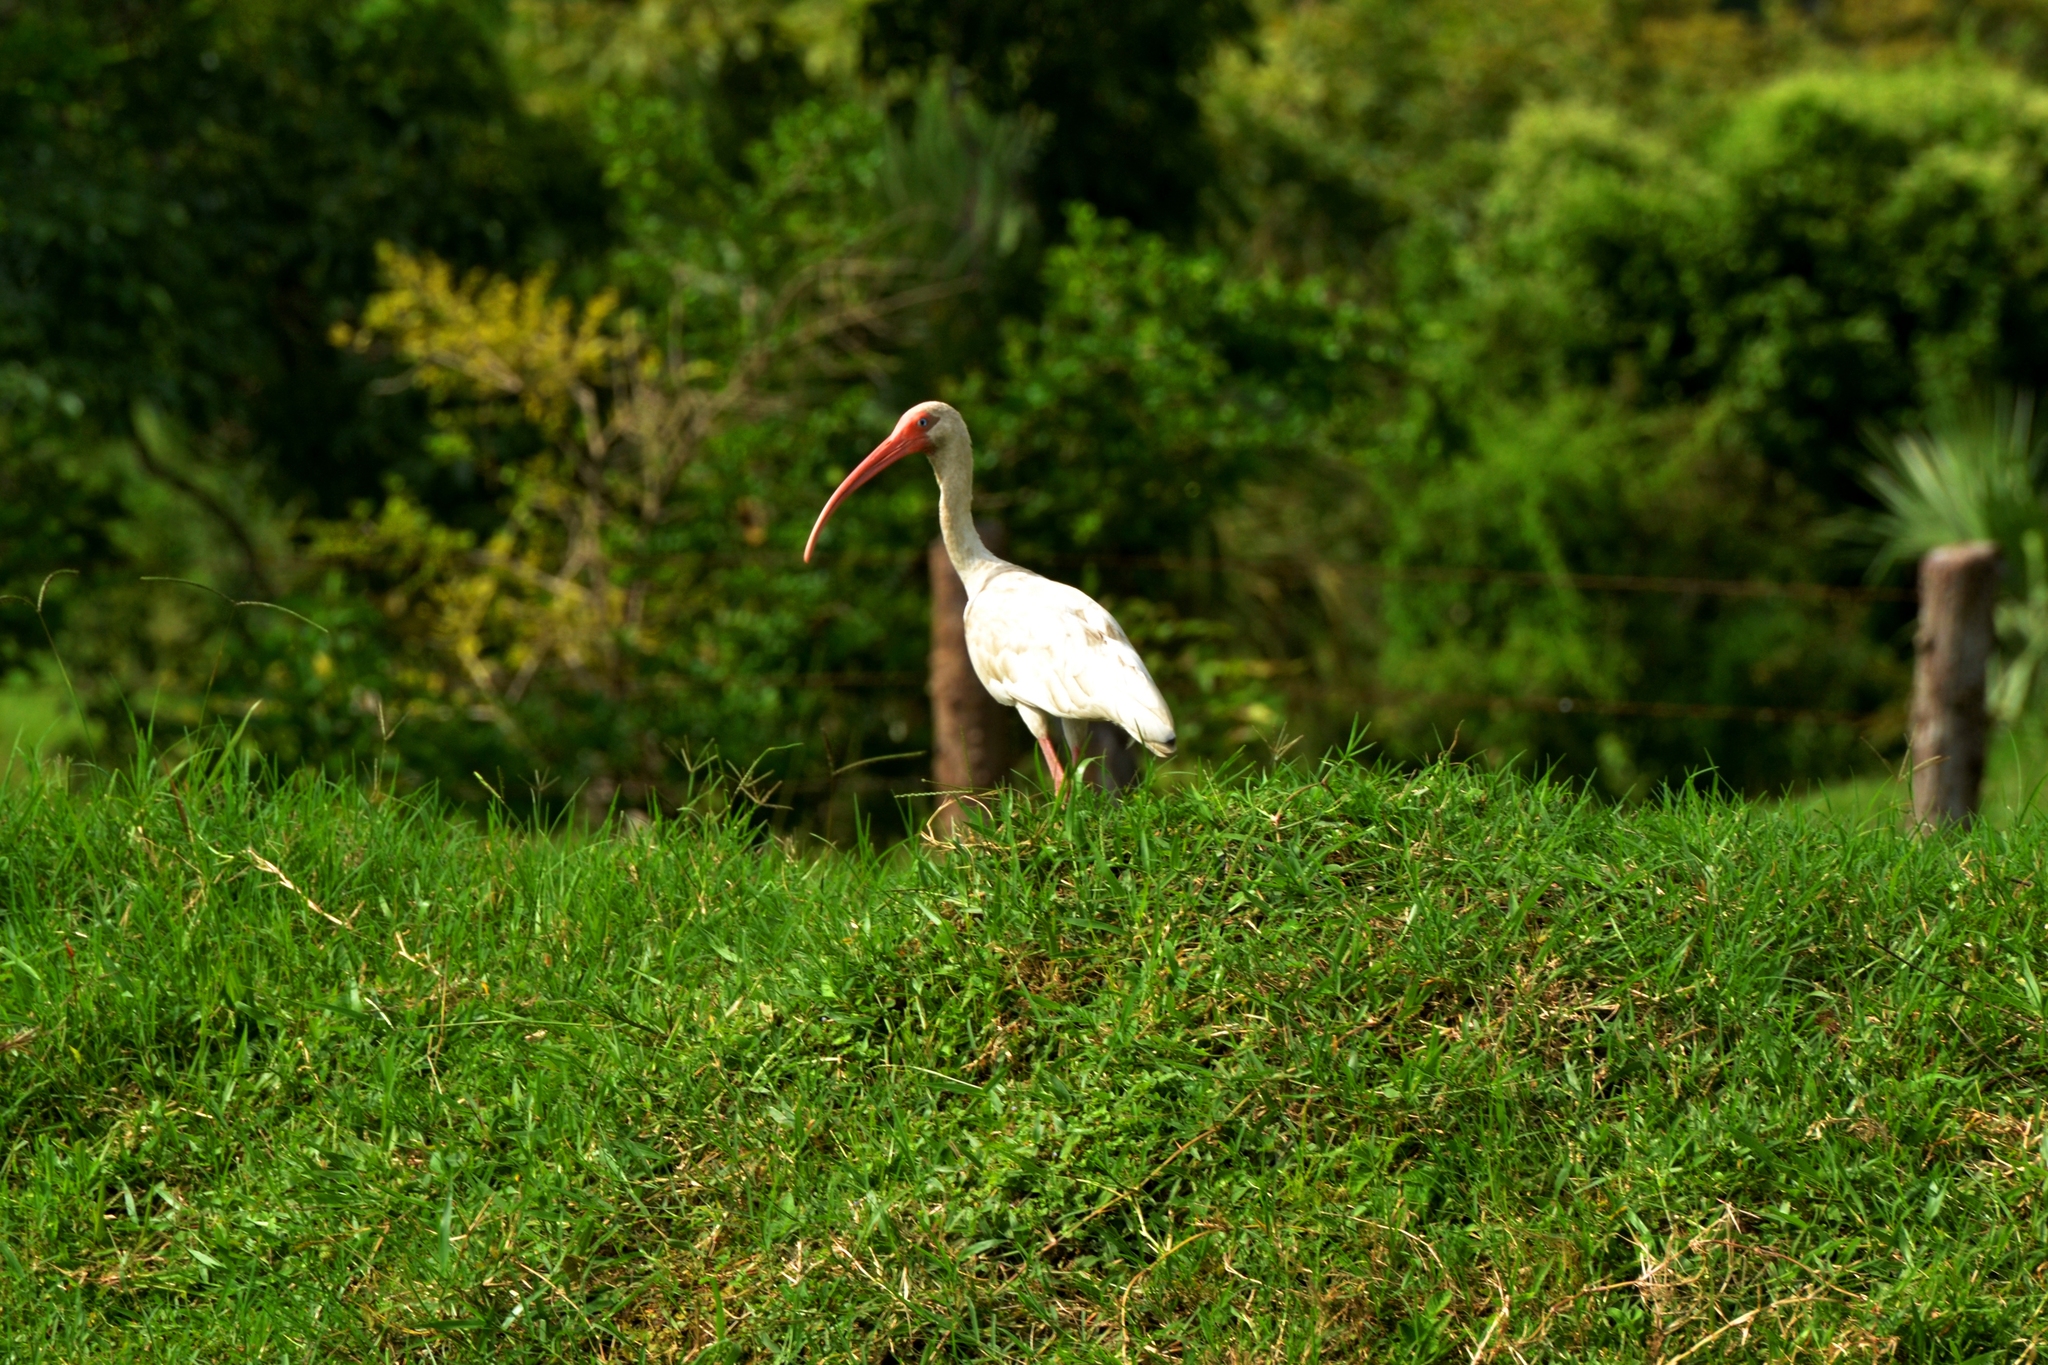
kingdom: Animalia
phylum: Chordata
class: Aves
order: Pelecaniformes
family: Threskiornithidae
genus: Eudocimus
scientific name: Eudocimus albus
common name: White ibis
